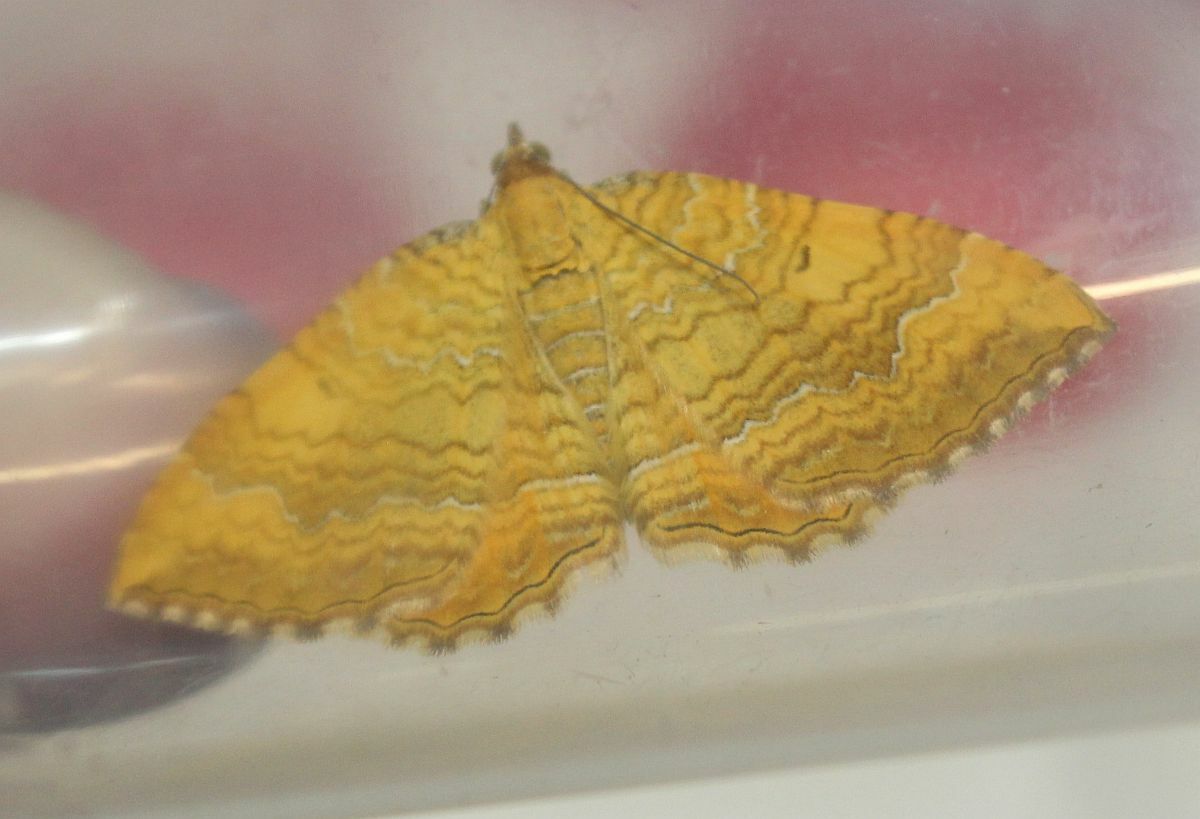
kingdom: Animalia
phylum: Arthropoda
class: Insecta
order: Lepidoptera
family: Geometridae
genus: Camptogramma
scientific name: Camptogramma bilineata
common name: Yellow shell
